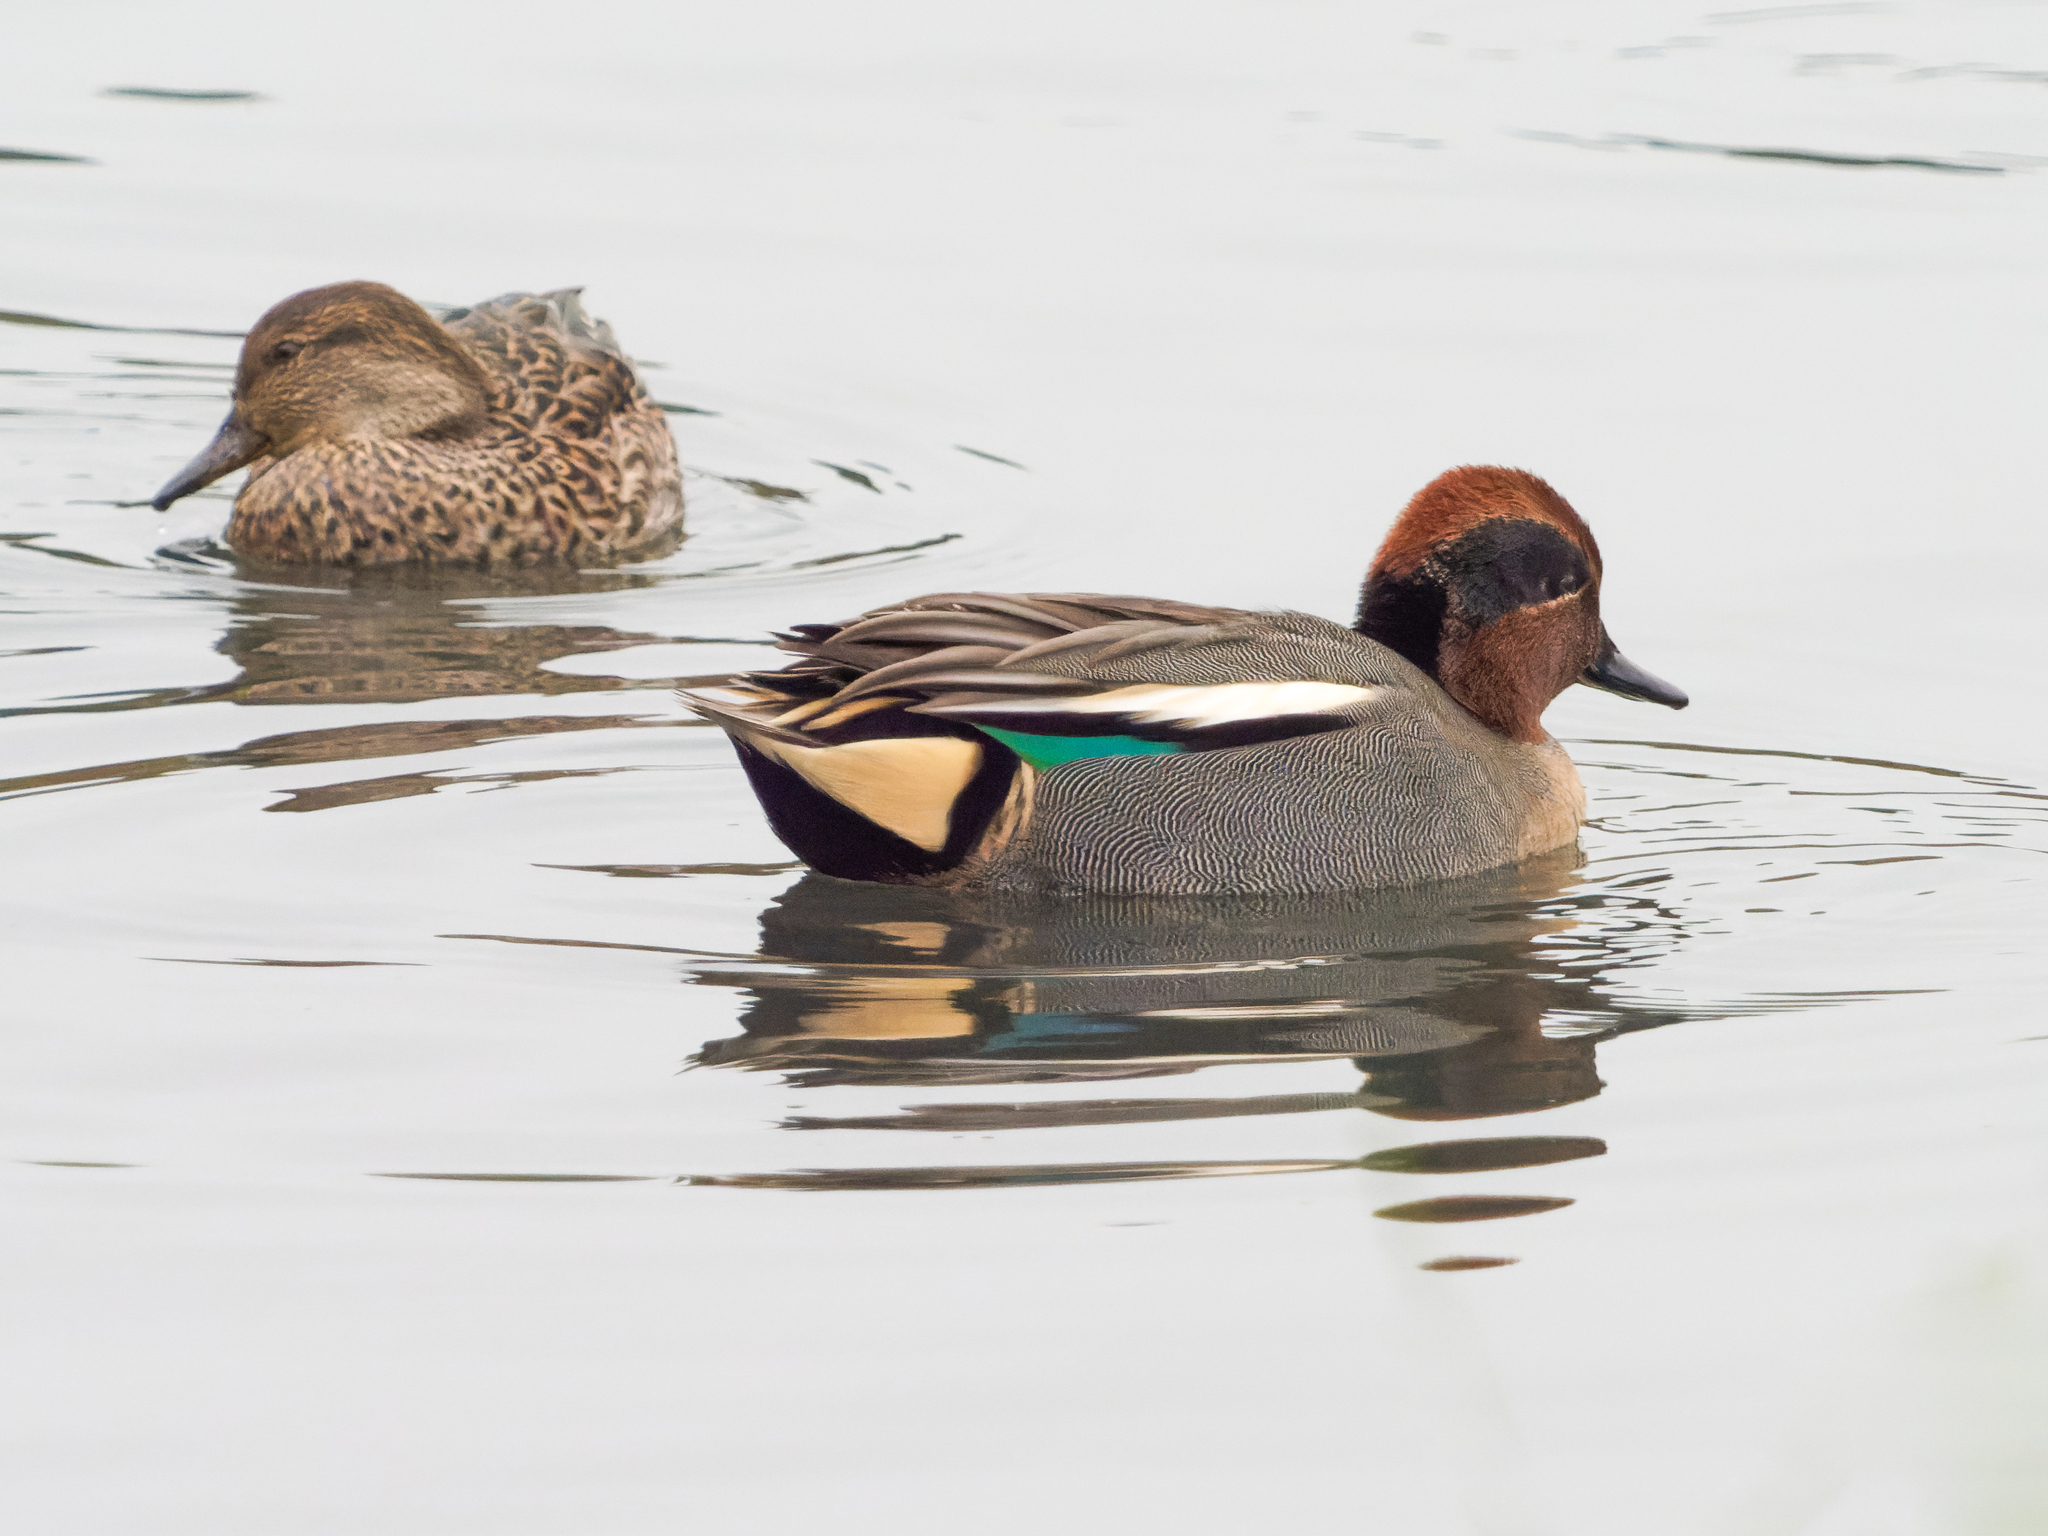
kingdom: Animalia
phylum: Chordata
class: Aves
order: Anseriformes
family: Anatidae
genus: Anas
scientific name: Anas crecca
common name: Eurasian teal
